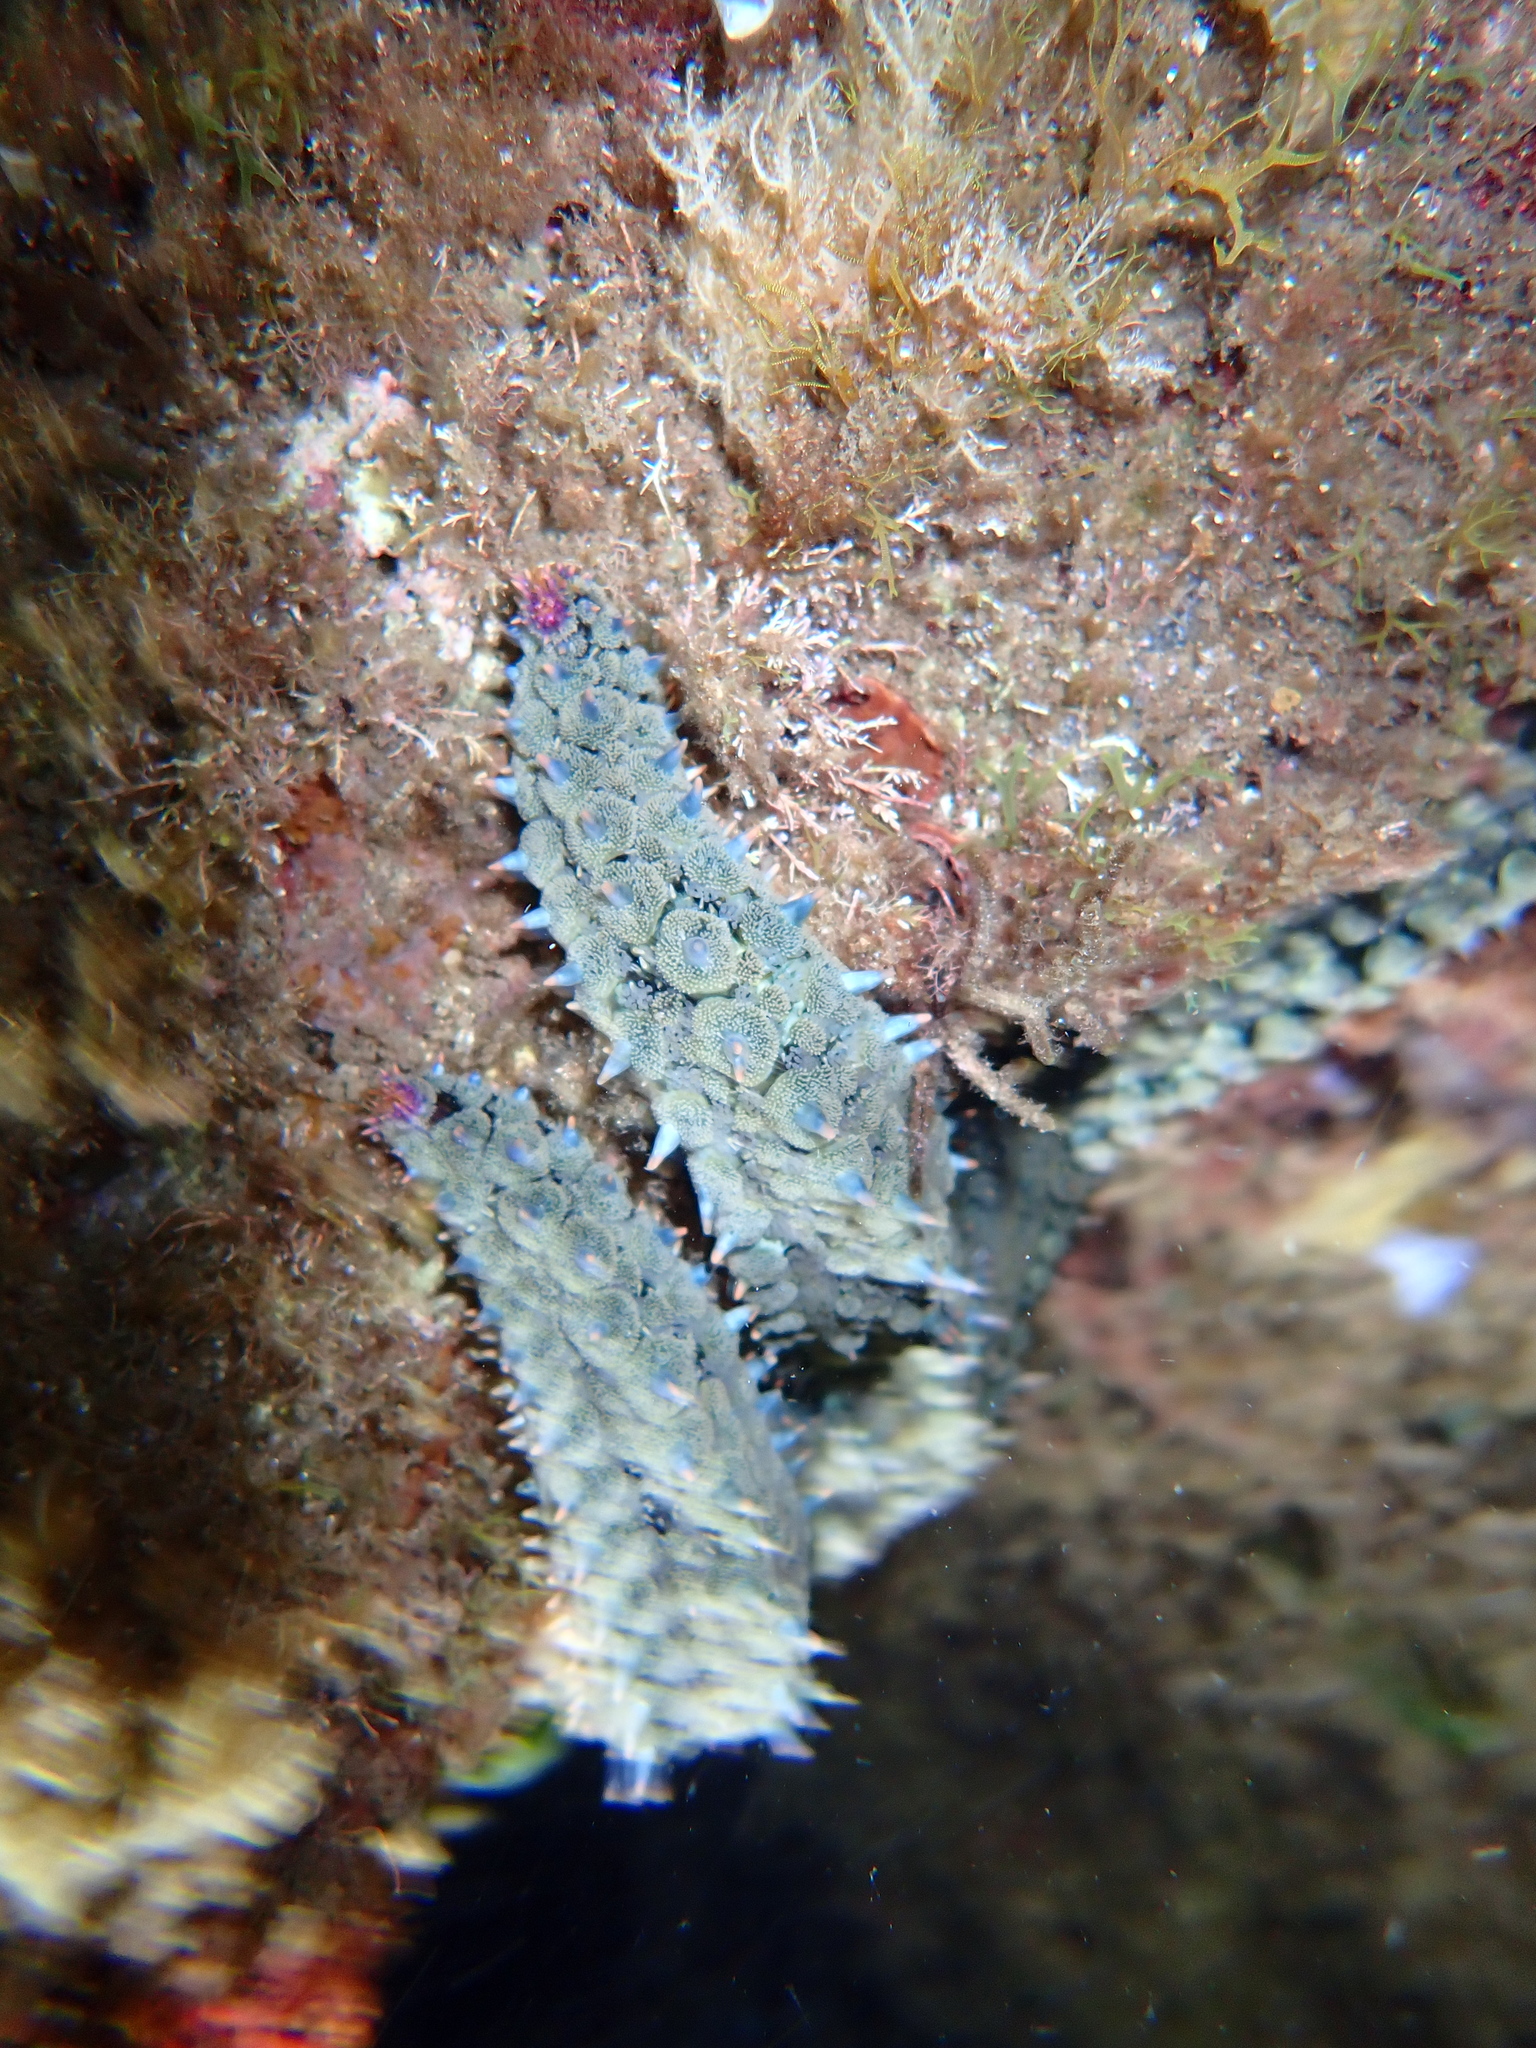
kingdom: Animalia
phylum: Echinodermata
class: Asteroidea
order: Forcipulatida
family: Asteriidae
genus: Marthasterias
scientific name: Marthasterias glacialis
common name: Spiny starfish
